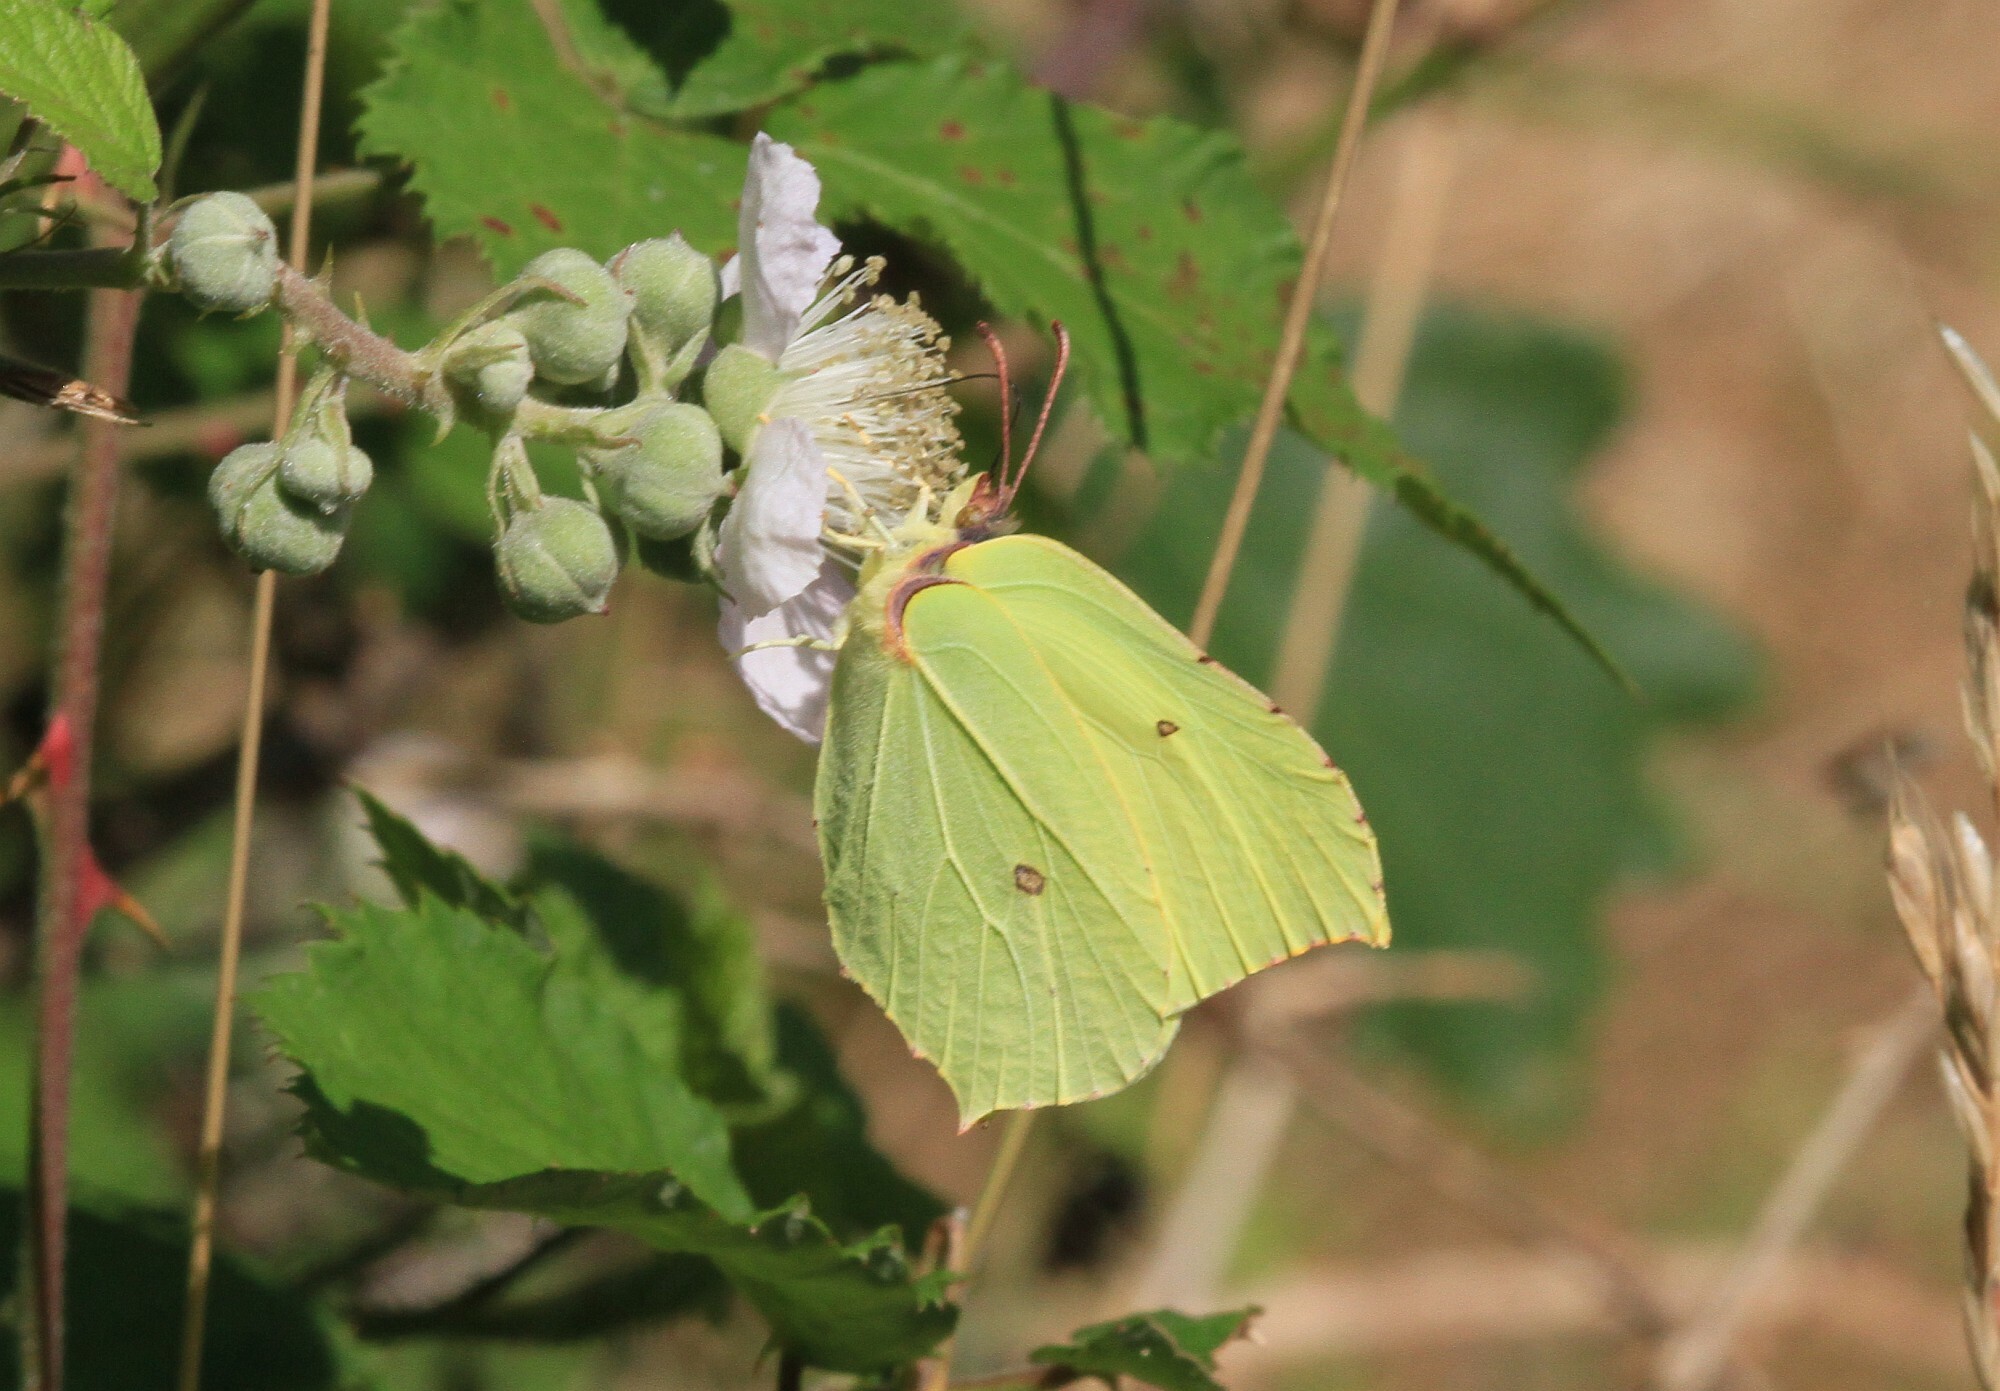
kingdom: Animalia
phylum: Arthropoda
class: Insecta
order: Lepidoptera
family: Pieridae
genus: Gonepteryx
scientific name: Gonepteryx rhamni
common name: Brimstone
